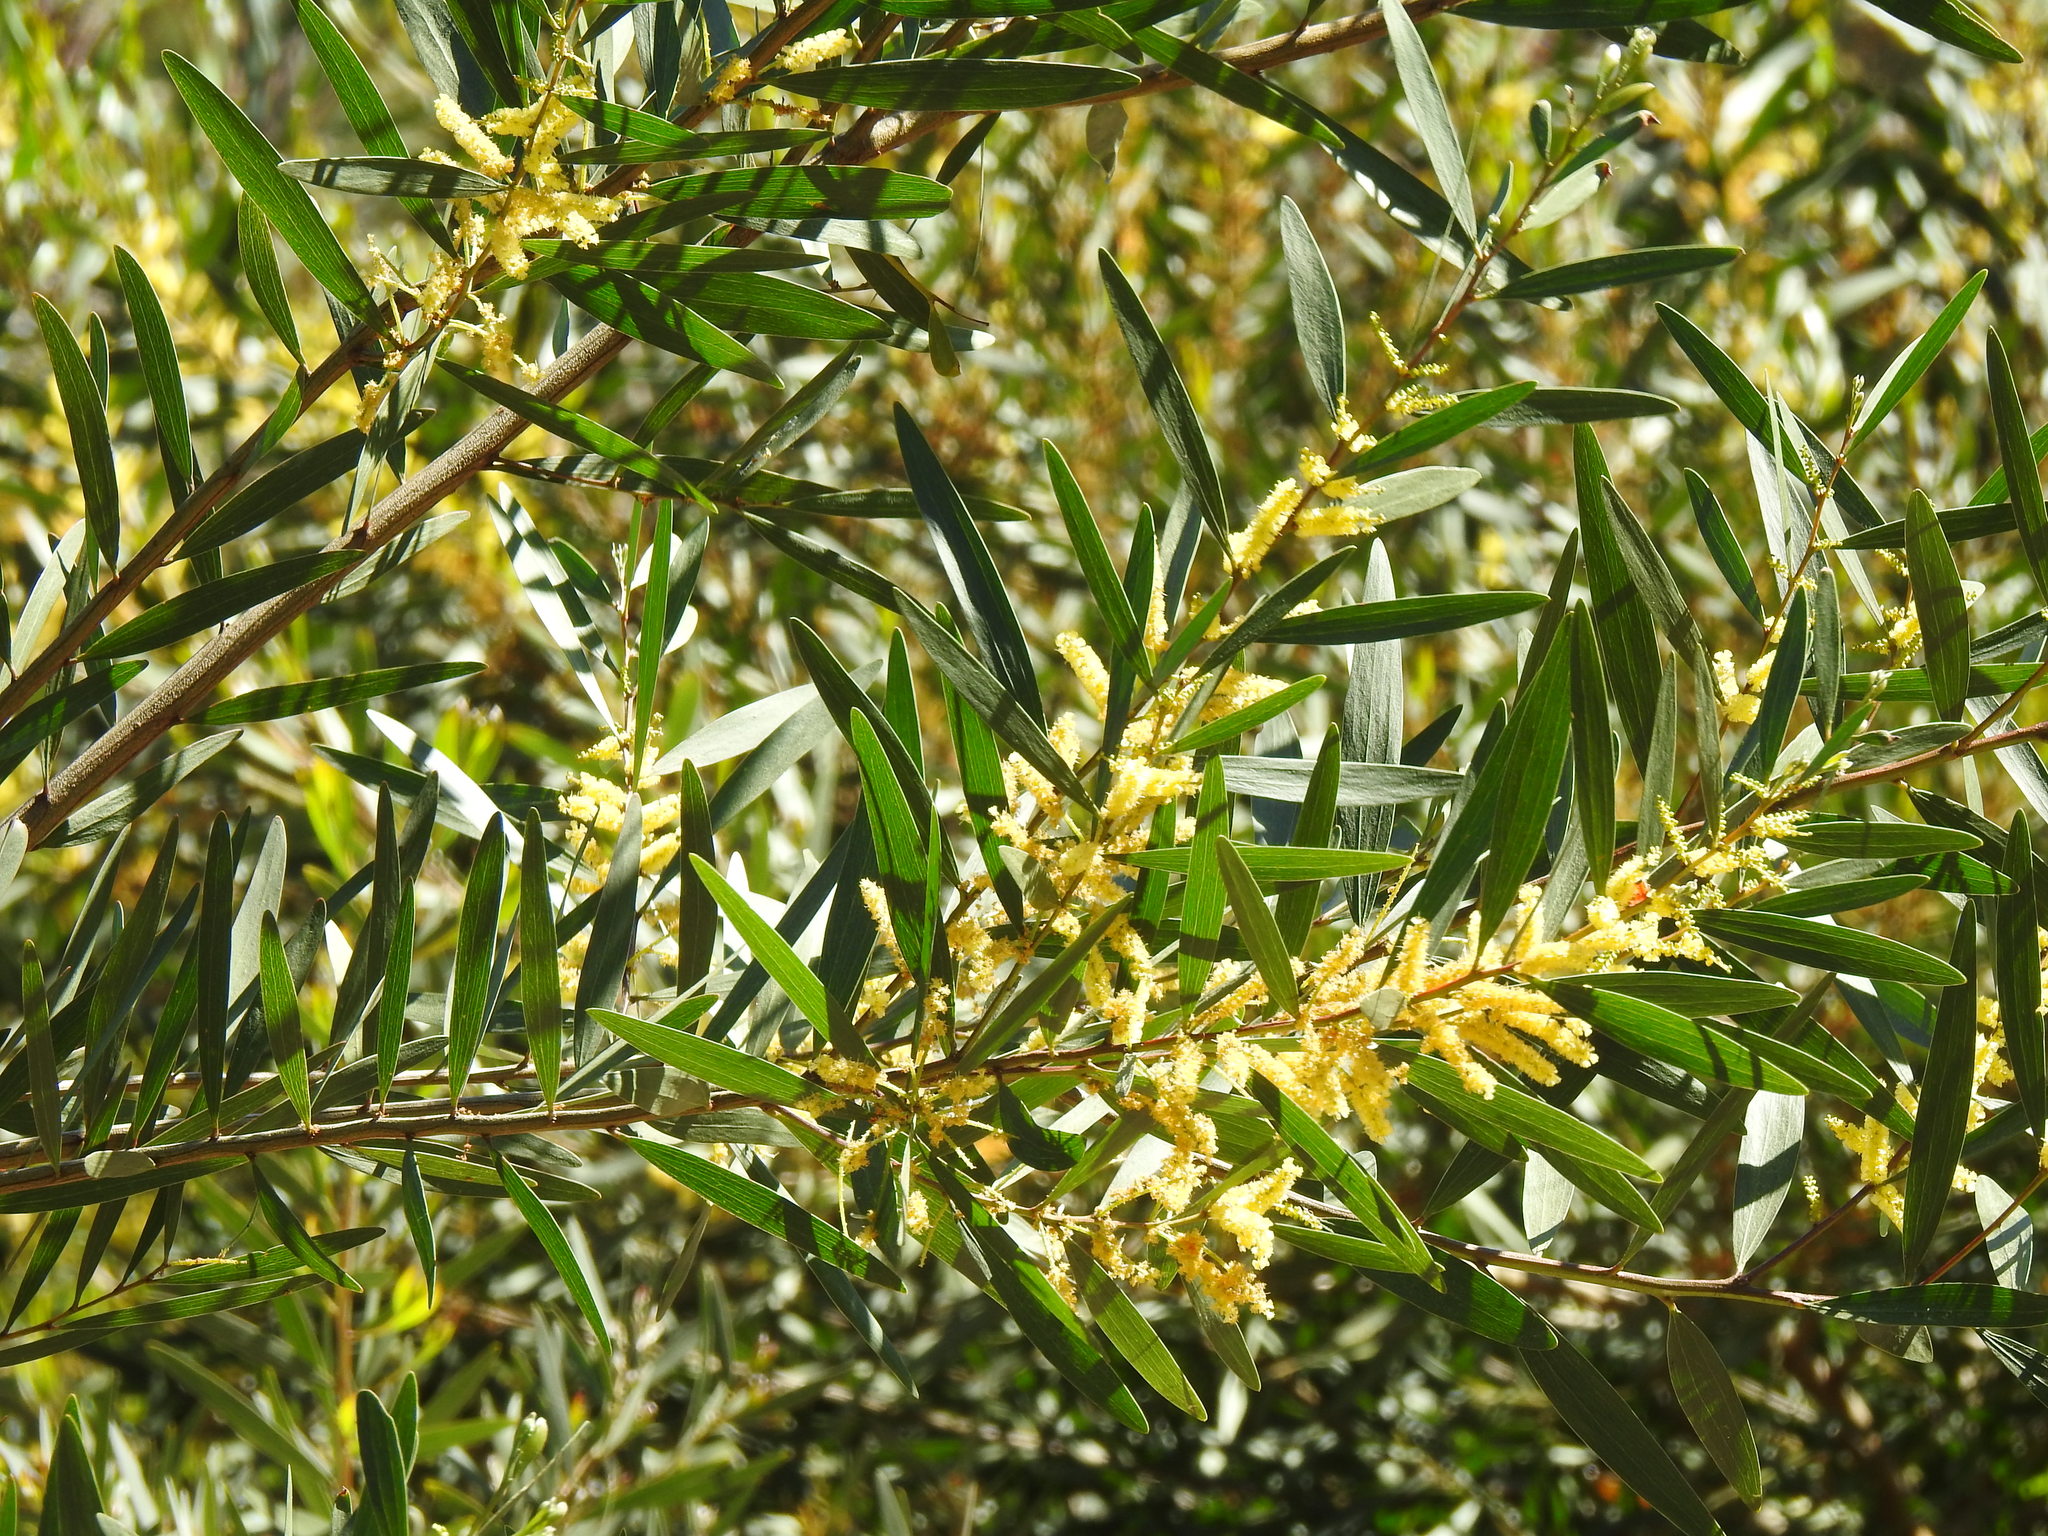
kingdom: Plantae
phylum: Tracheophyta
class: Magnoliopsida
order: Fabales
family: Fabaceae
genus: Acacia
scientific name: Acacia longifolia
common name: Sydney golden wattle
